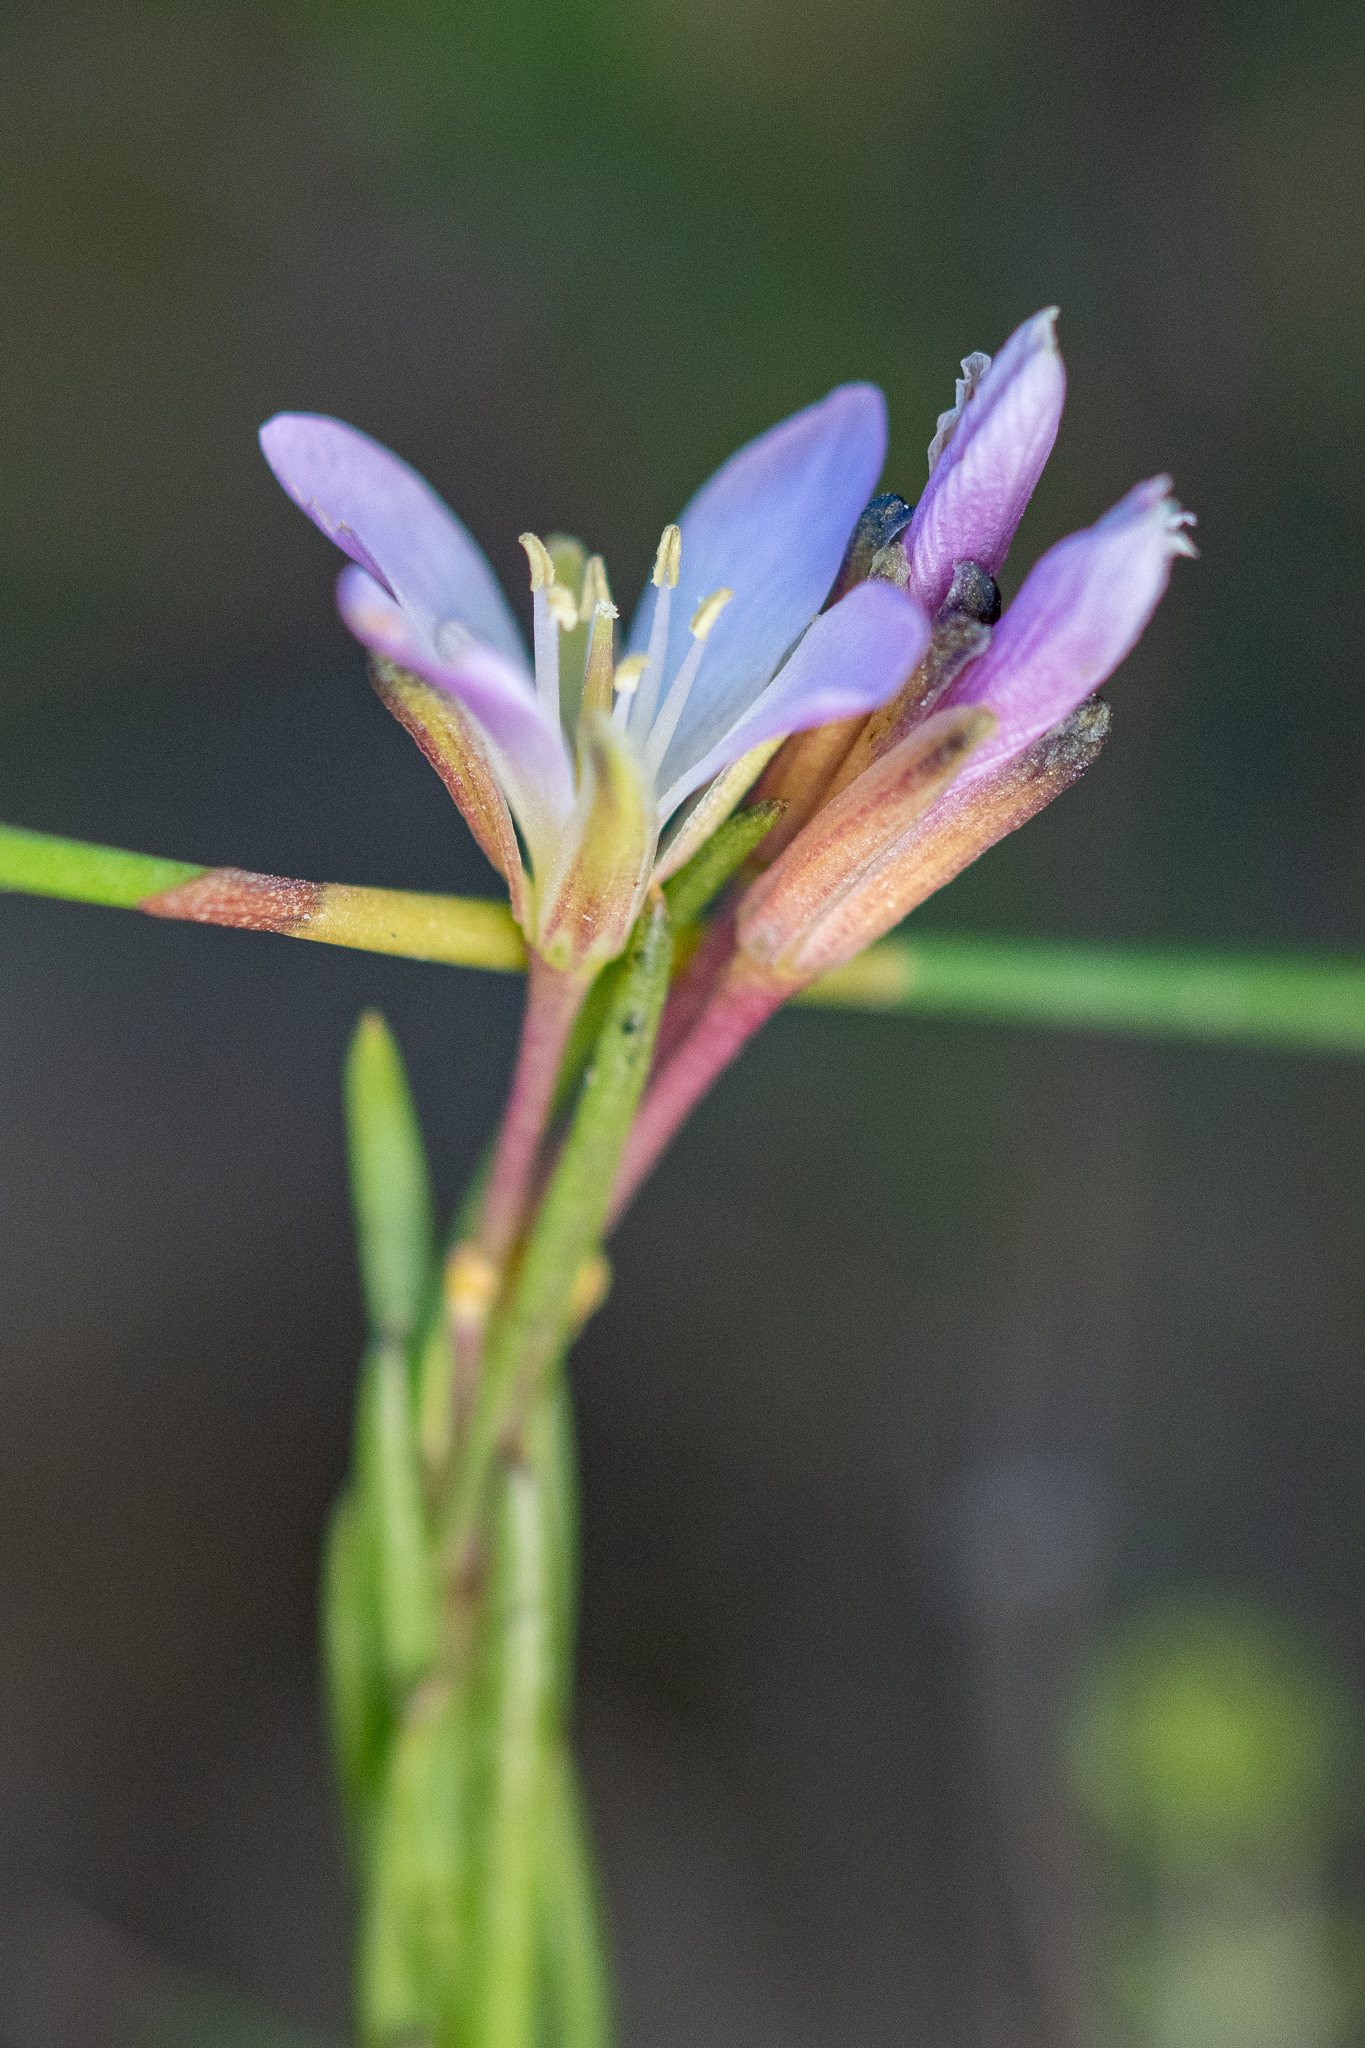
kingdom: Plantae
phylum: Tracheophyta
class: Magnoliopsida
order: Brassicales
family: Brassicaceae
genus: Heliophila
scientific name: Heliophila scoparia
